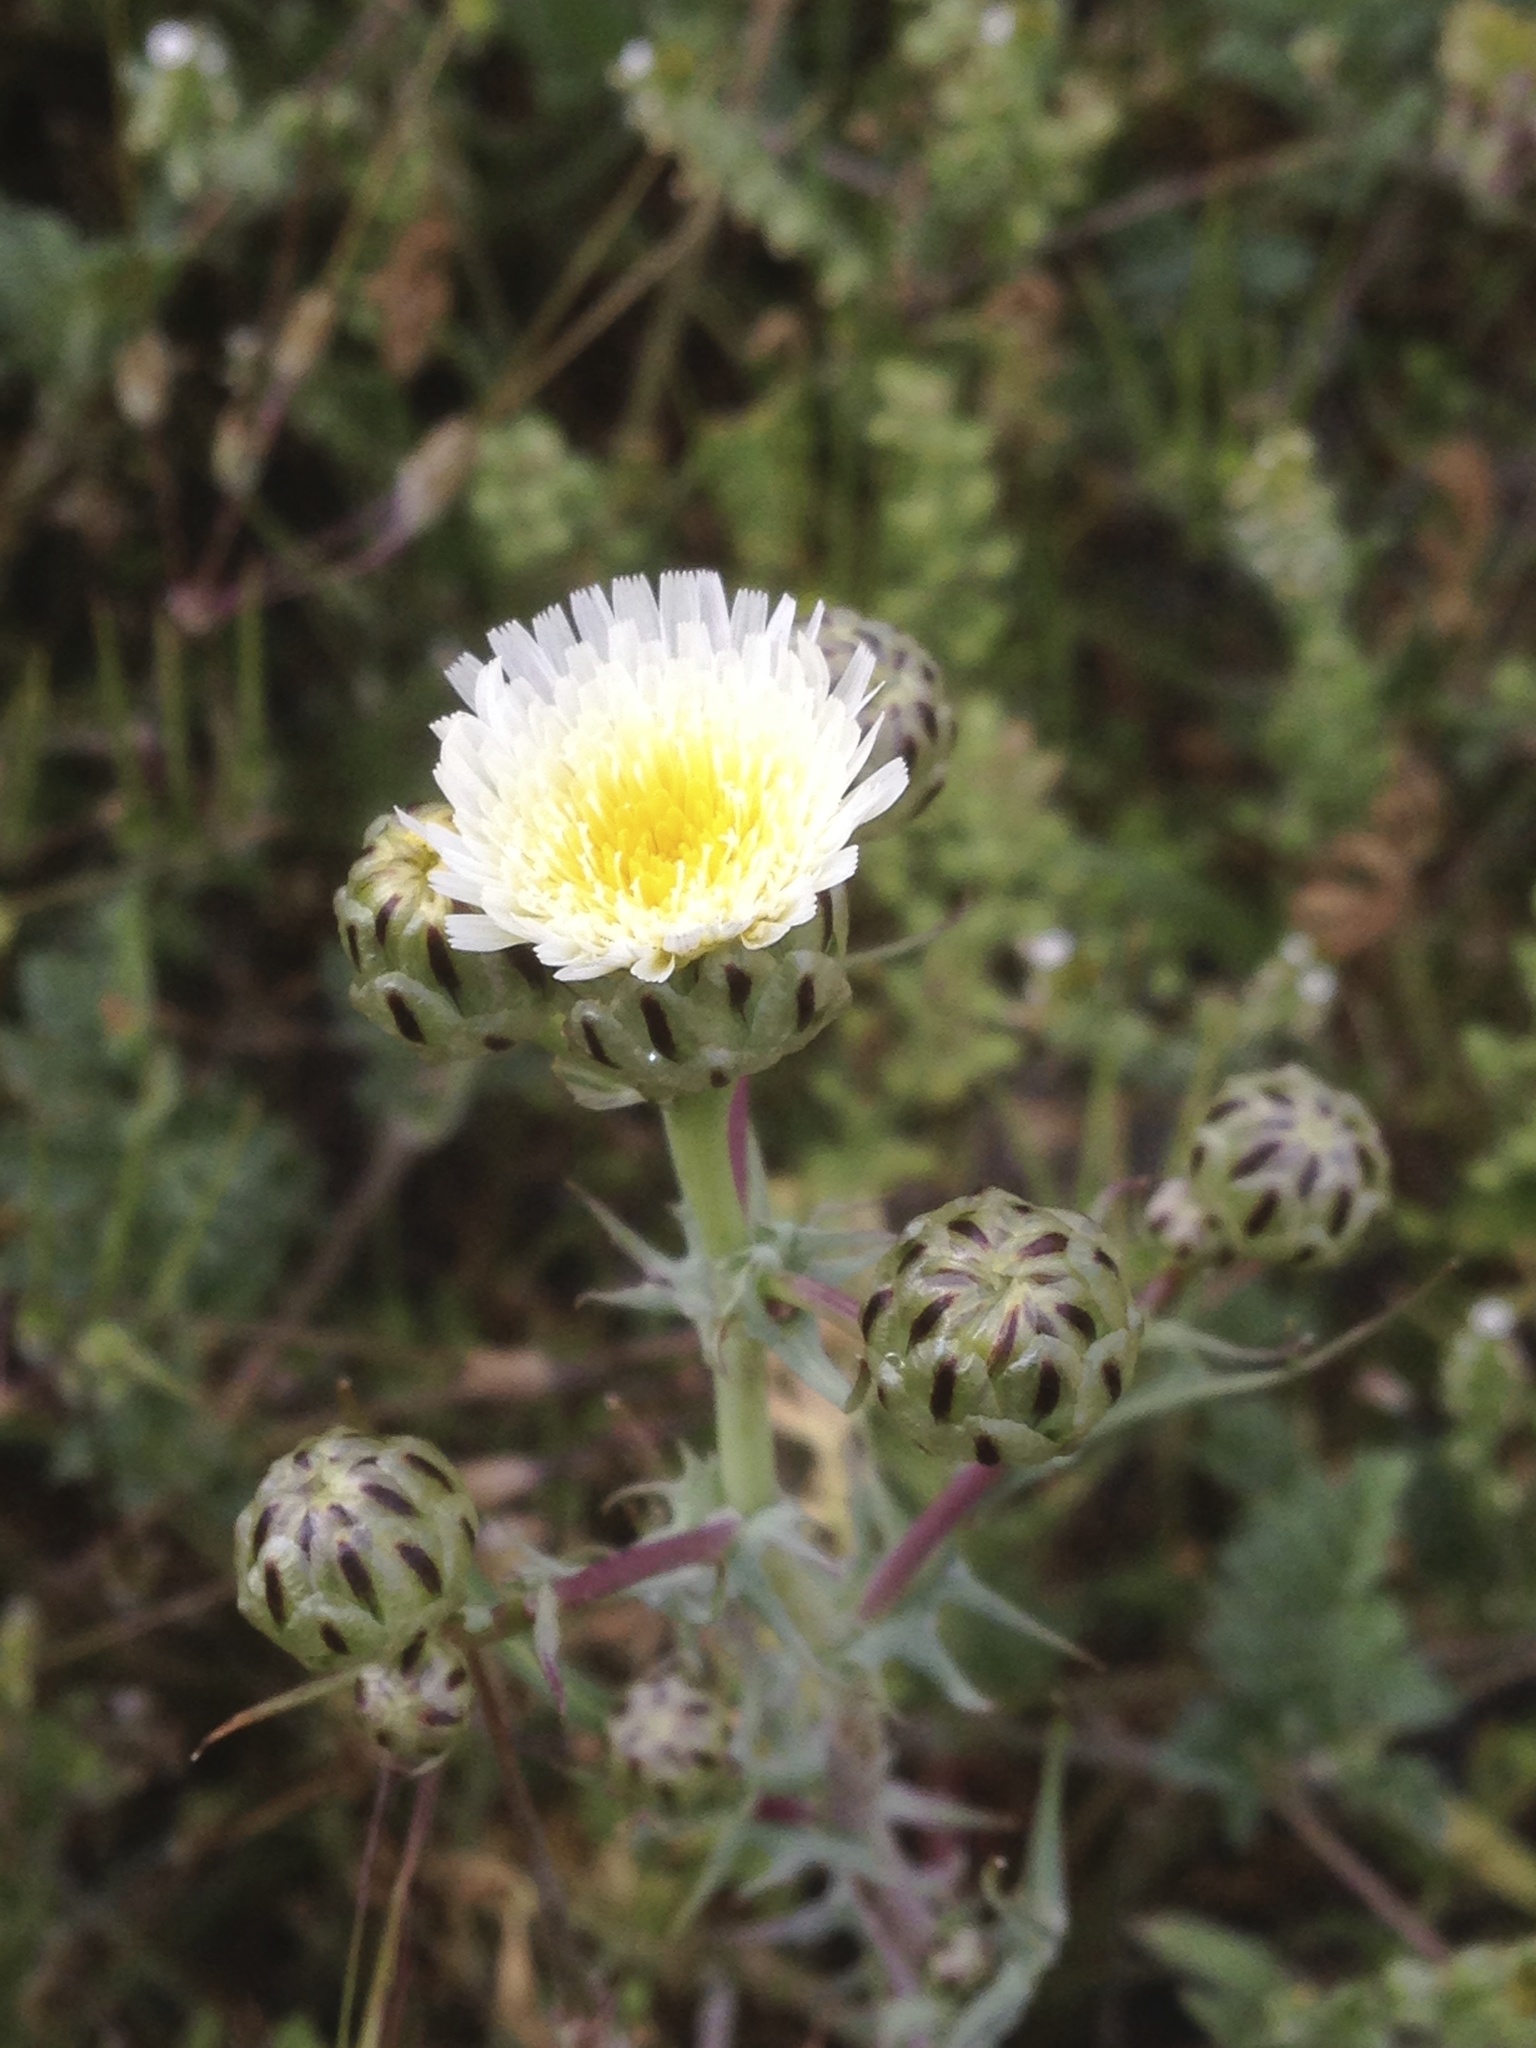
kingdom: Plantae
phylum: Tracheophyta
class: Magnoliopsida
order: Asterales
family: Asteraceae
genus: Malacothrix
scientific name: Malacothrix coulteri
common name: Snake's-head
